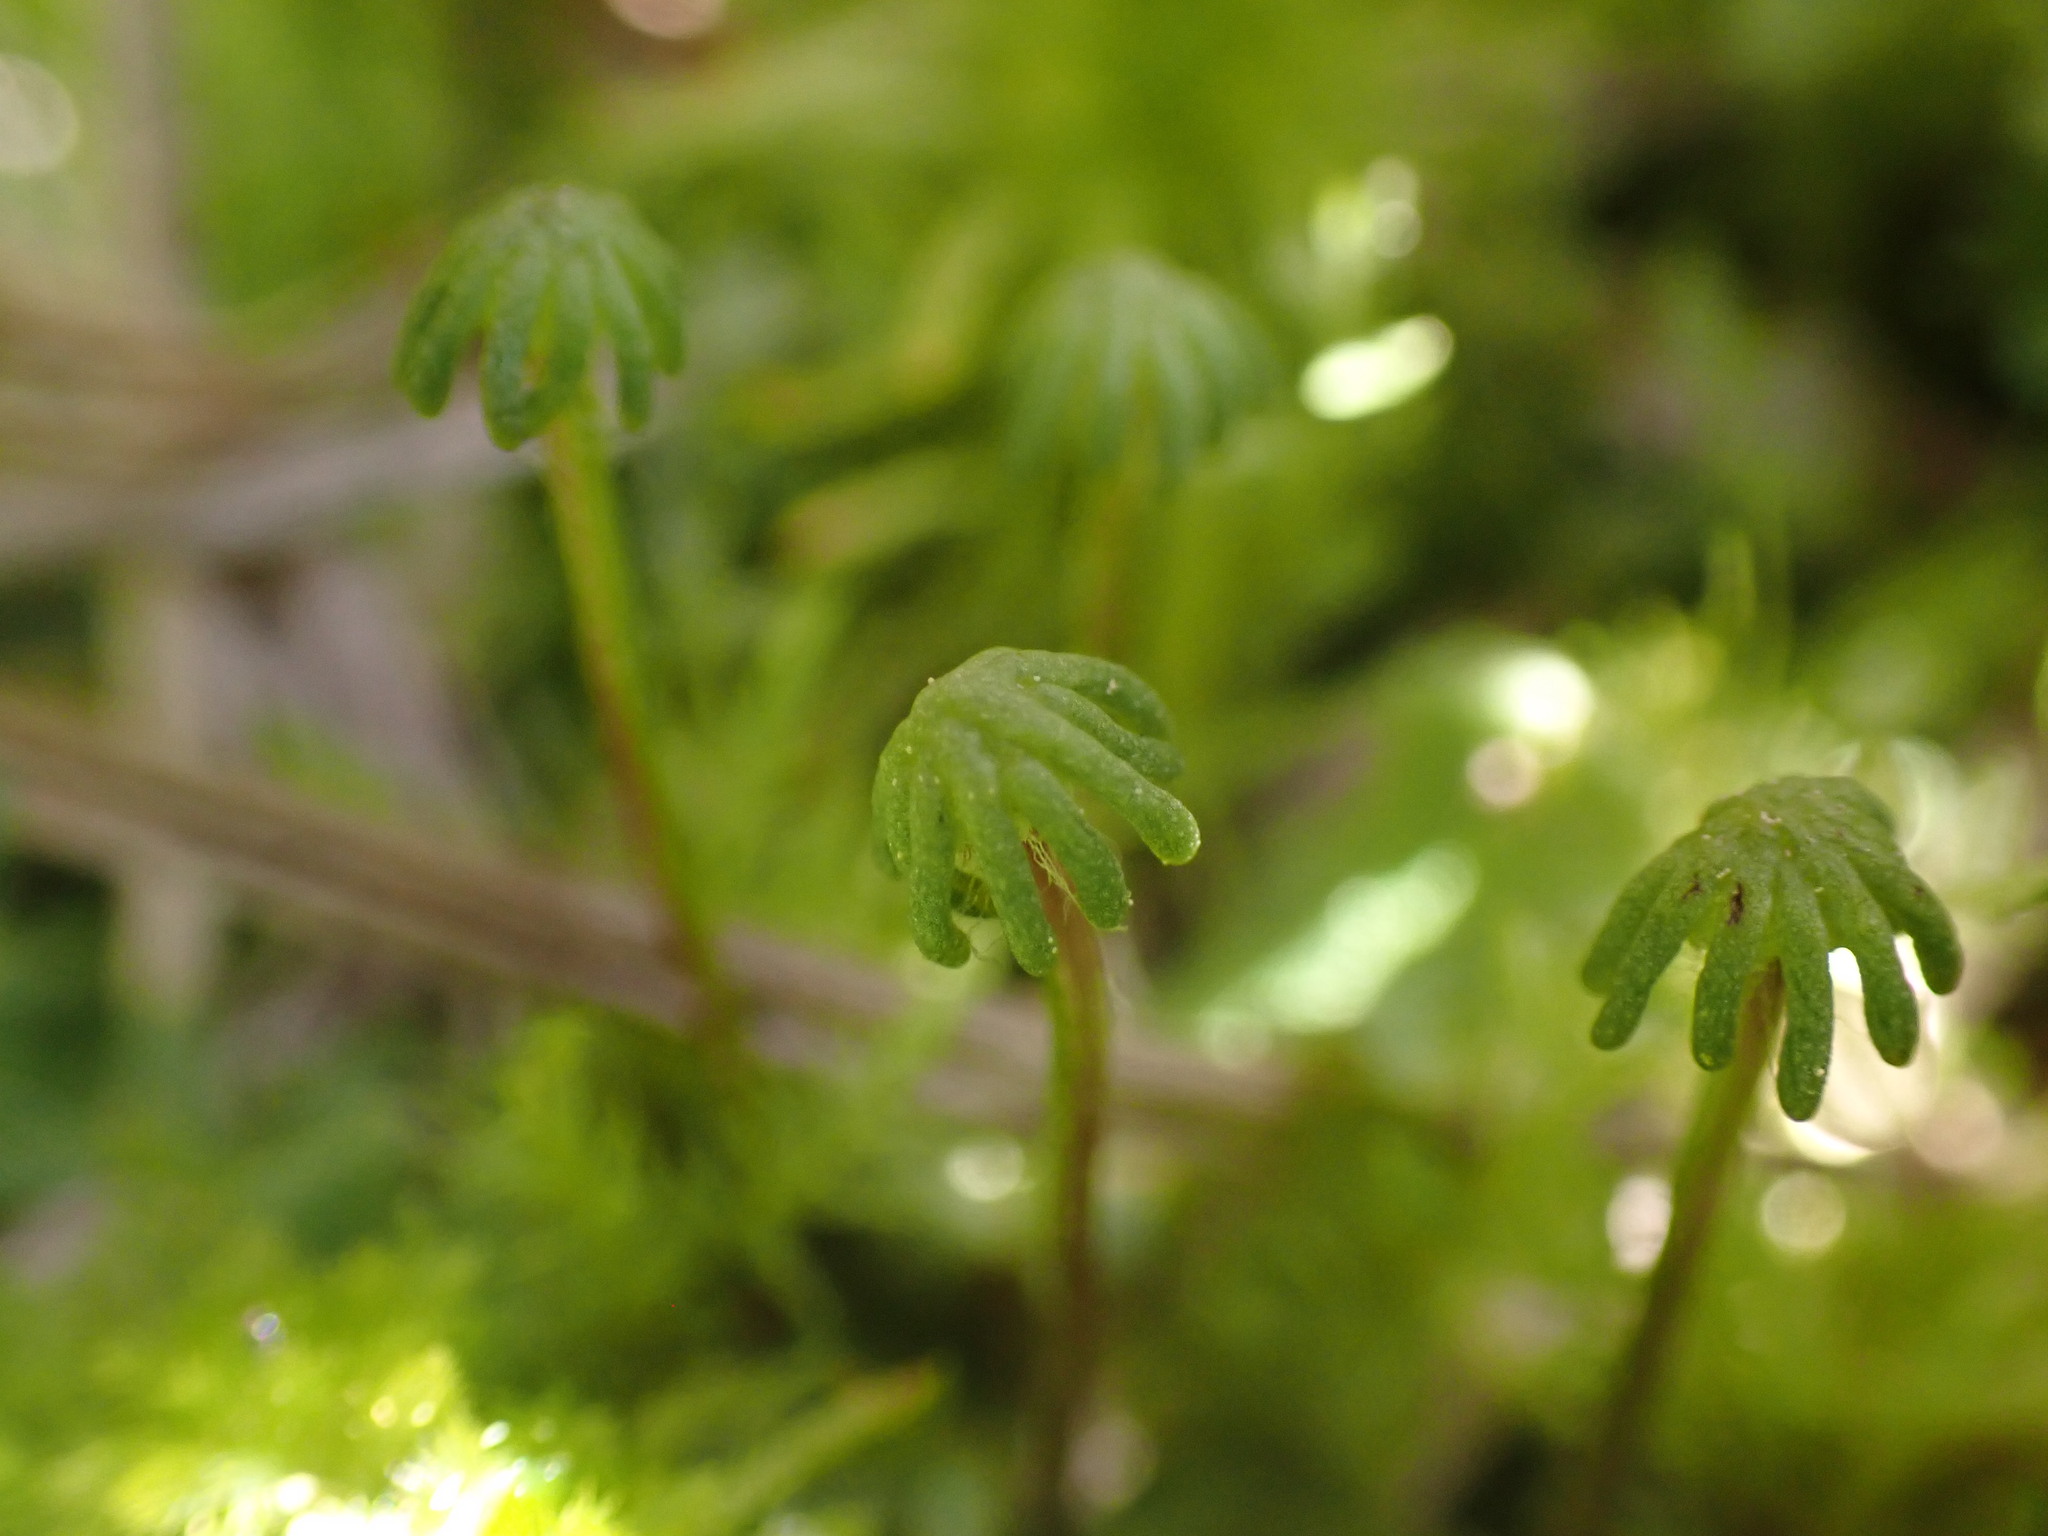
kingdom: Plantae
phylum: Marchantiophyta
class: Marchantiopsida
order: Marchantiales
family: Marchantiaceae
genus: Marchantia
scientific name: Marchantia polymorpha
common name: Common liverwort
